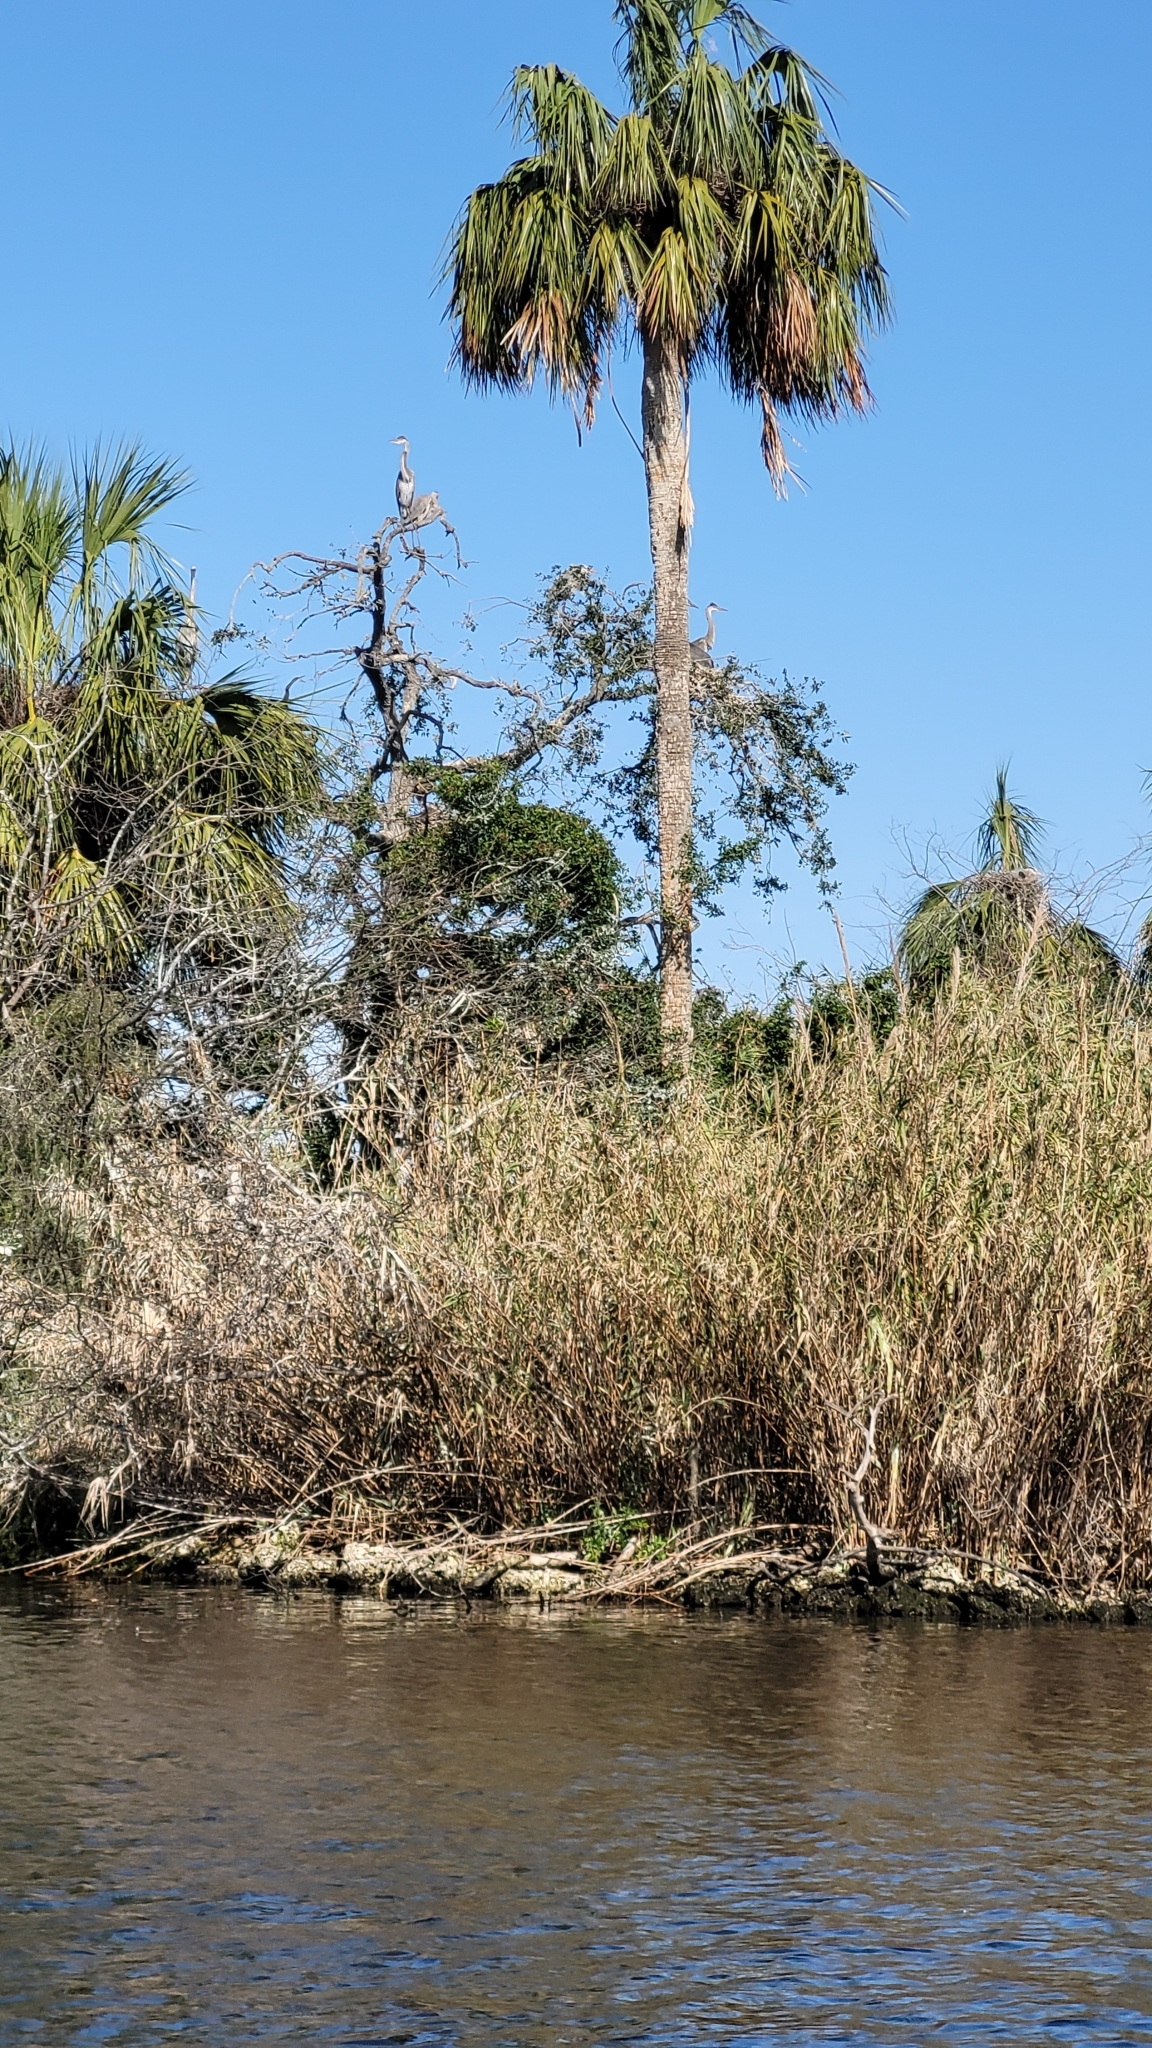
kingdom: Animalia
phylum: Chordata
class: Aves
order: Pelecaniformes
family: Ardeidae
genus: Ardea
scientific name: Ardea herodias
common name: Great blue heron
